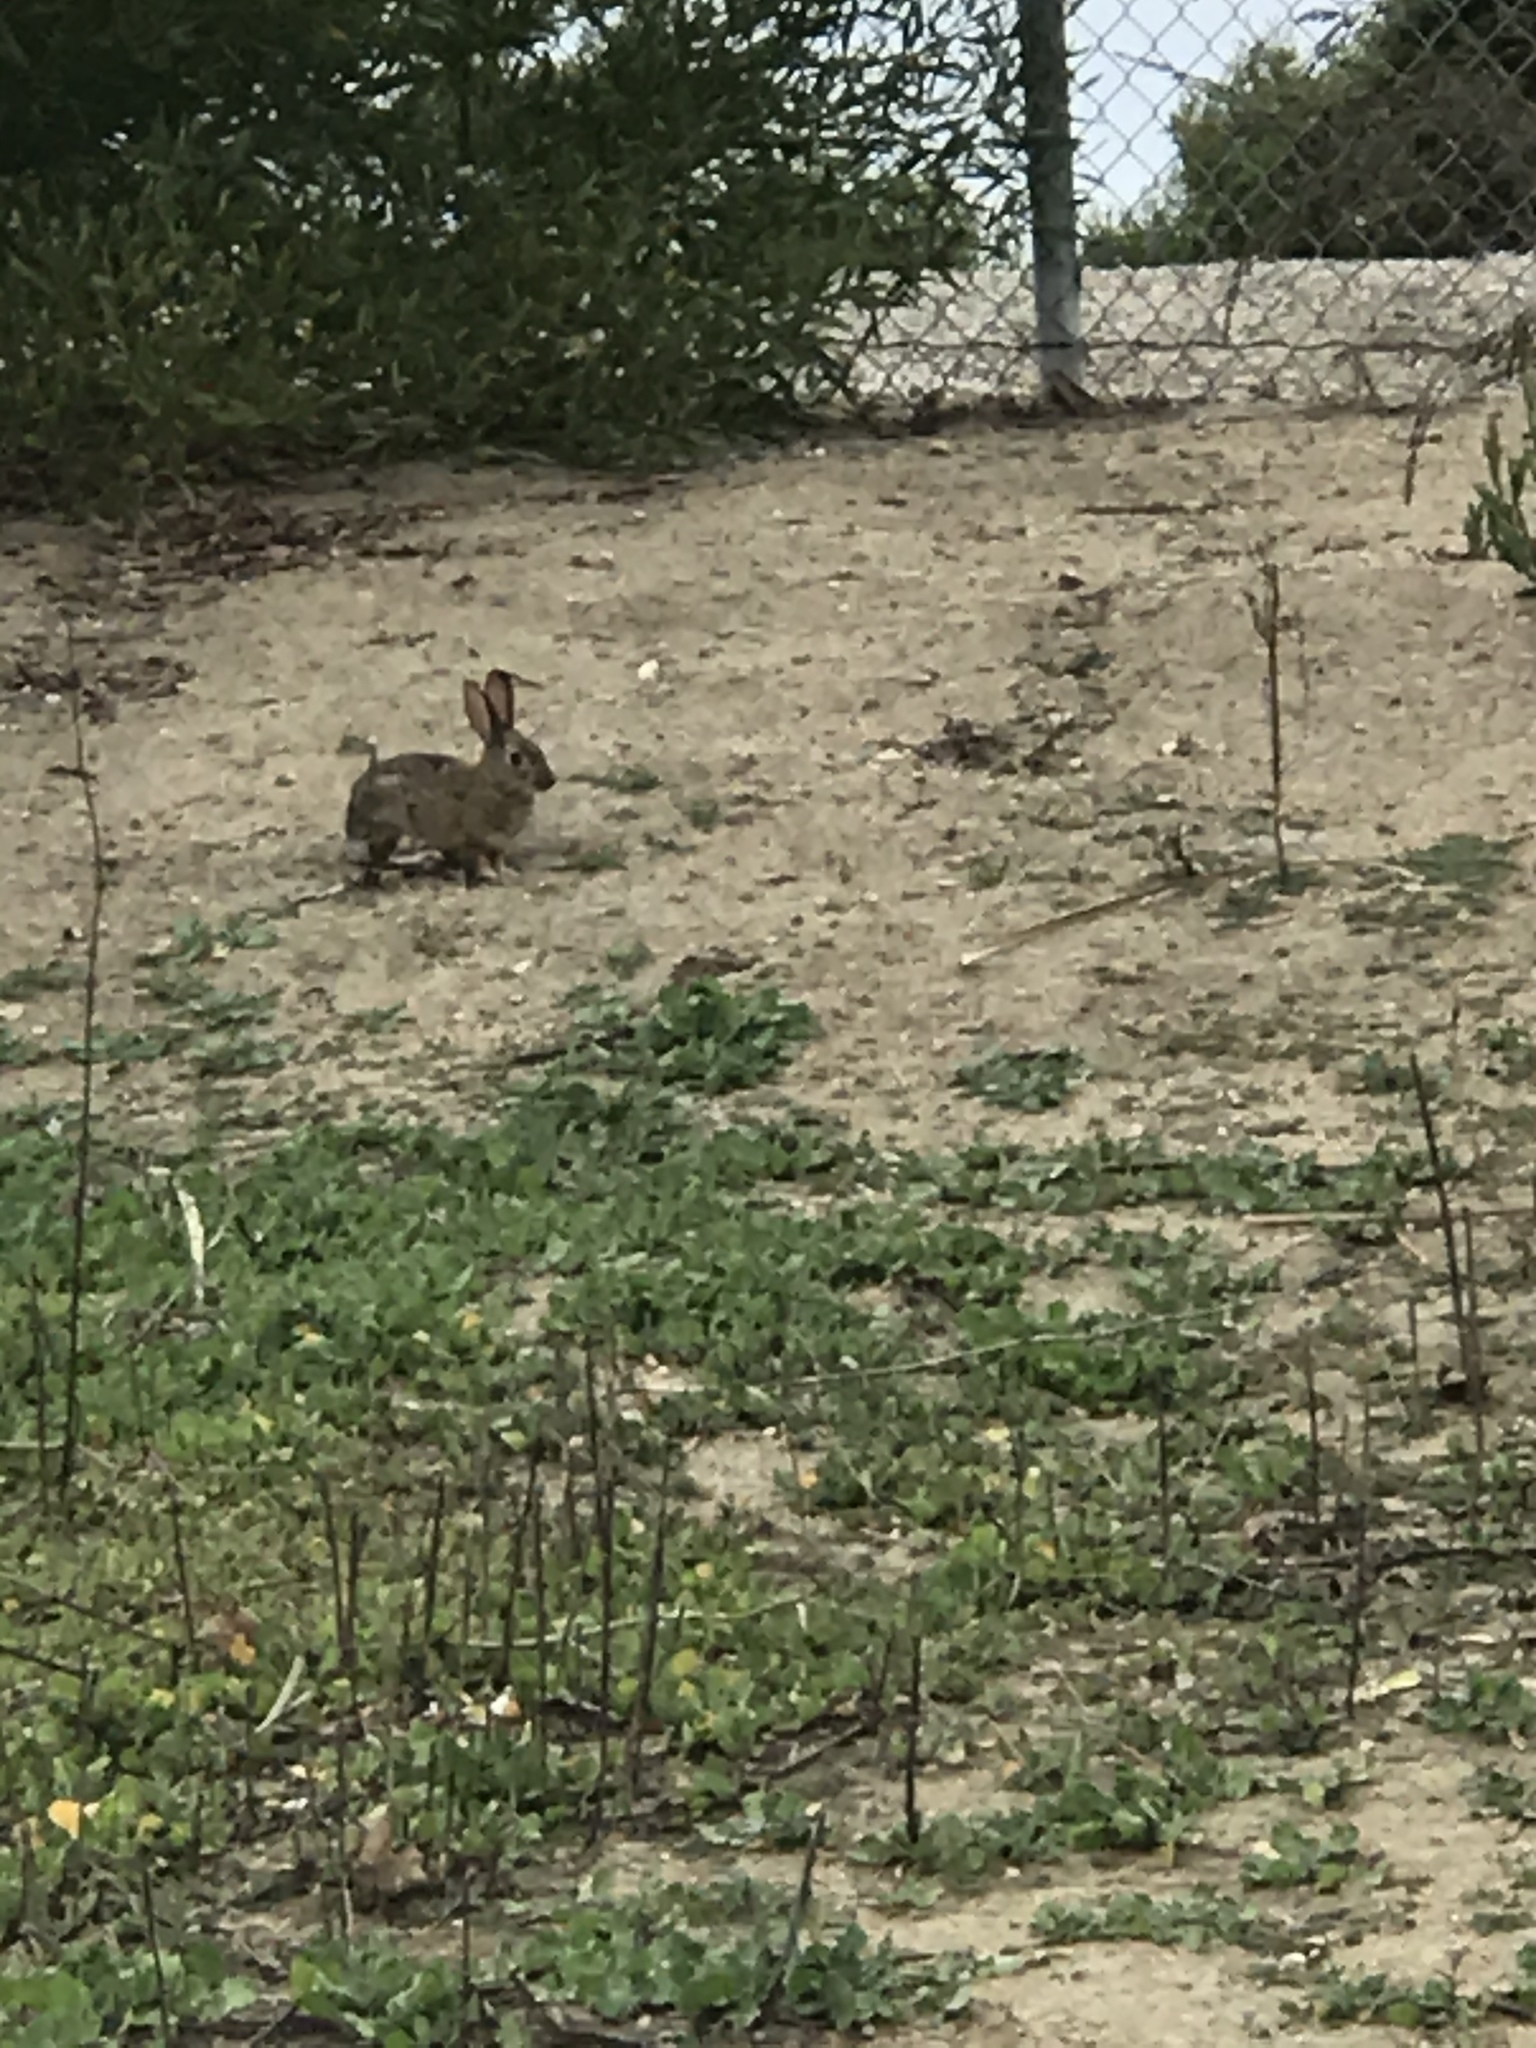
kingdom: Animalia
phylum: Chordata
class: Mammalia
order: Lagomorpha
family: Leporidae
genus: Sylvilagus
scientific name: Sylvilagus audubonii
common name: Desert cottontail
